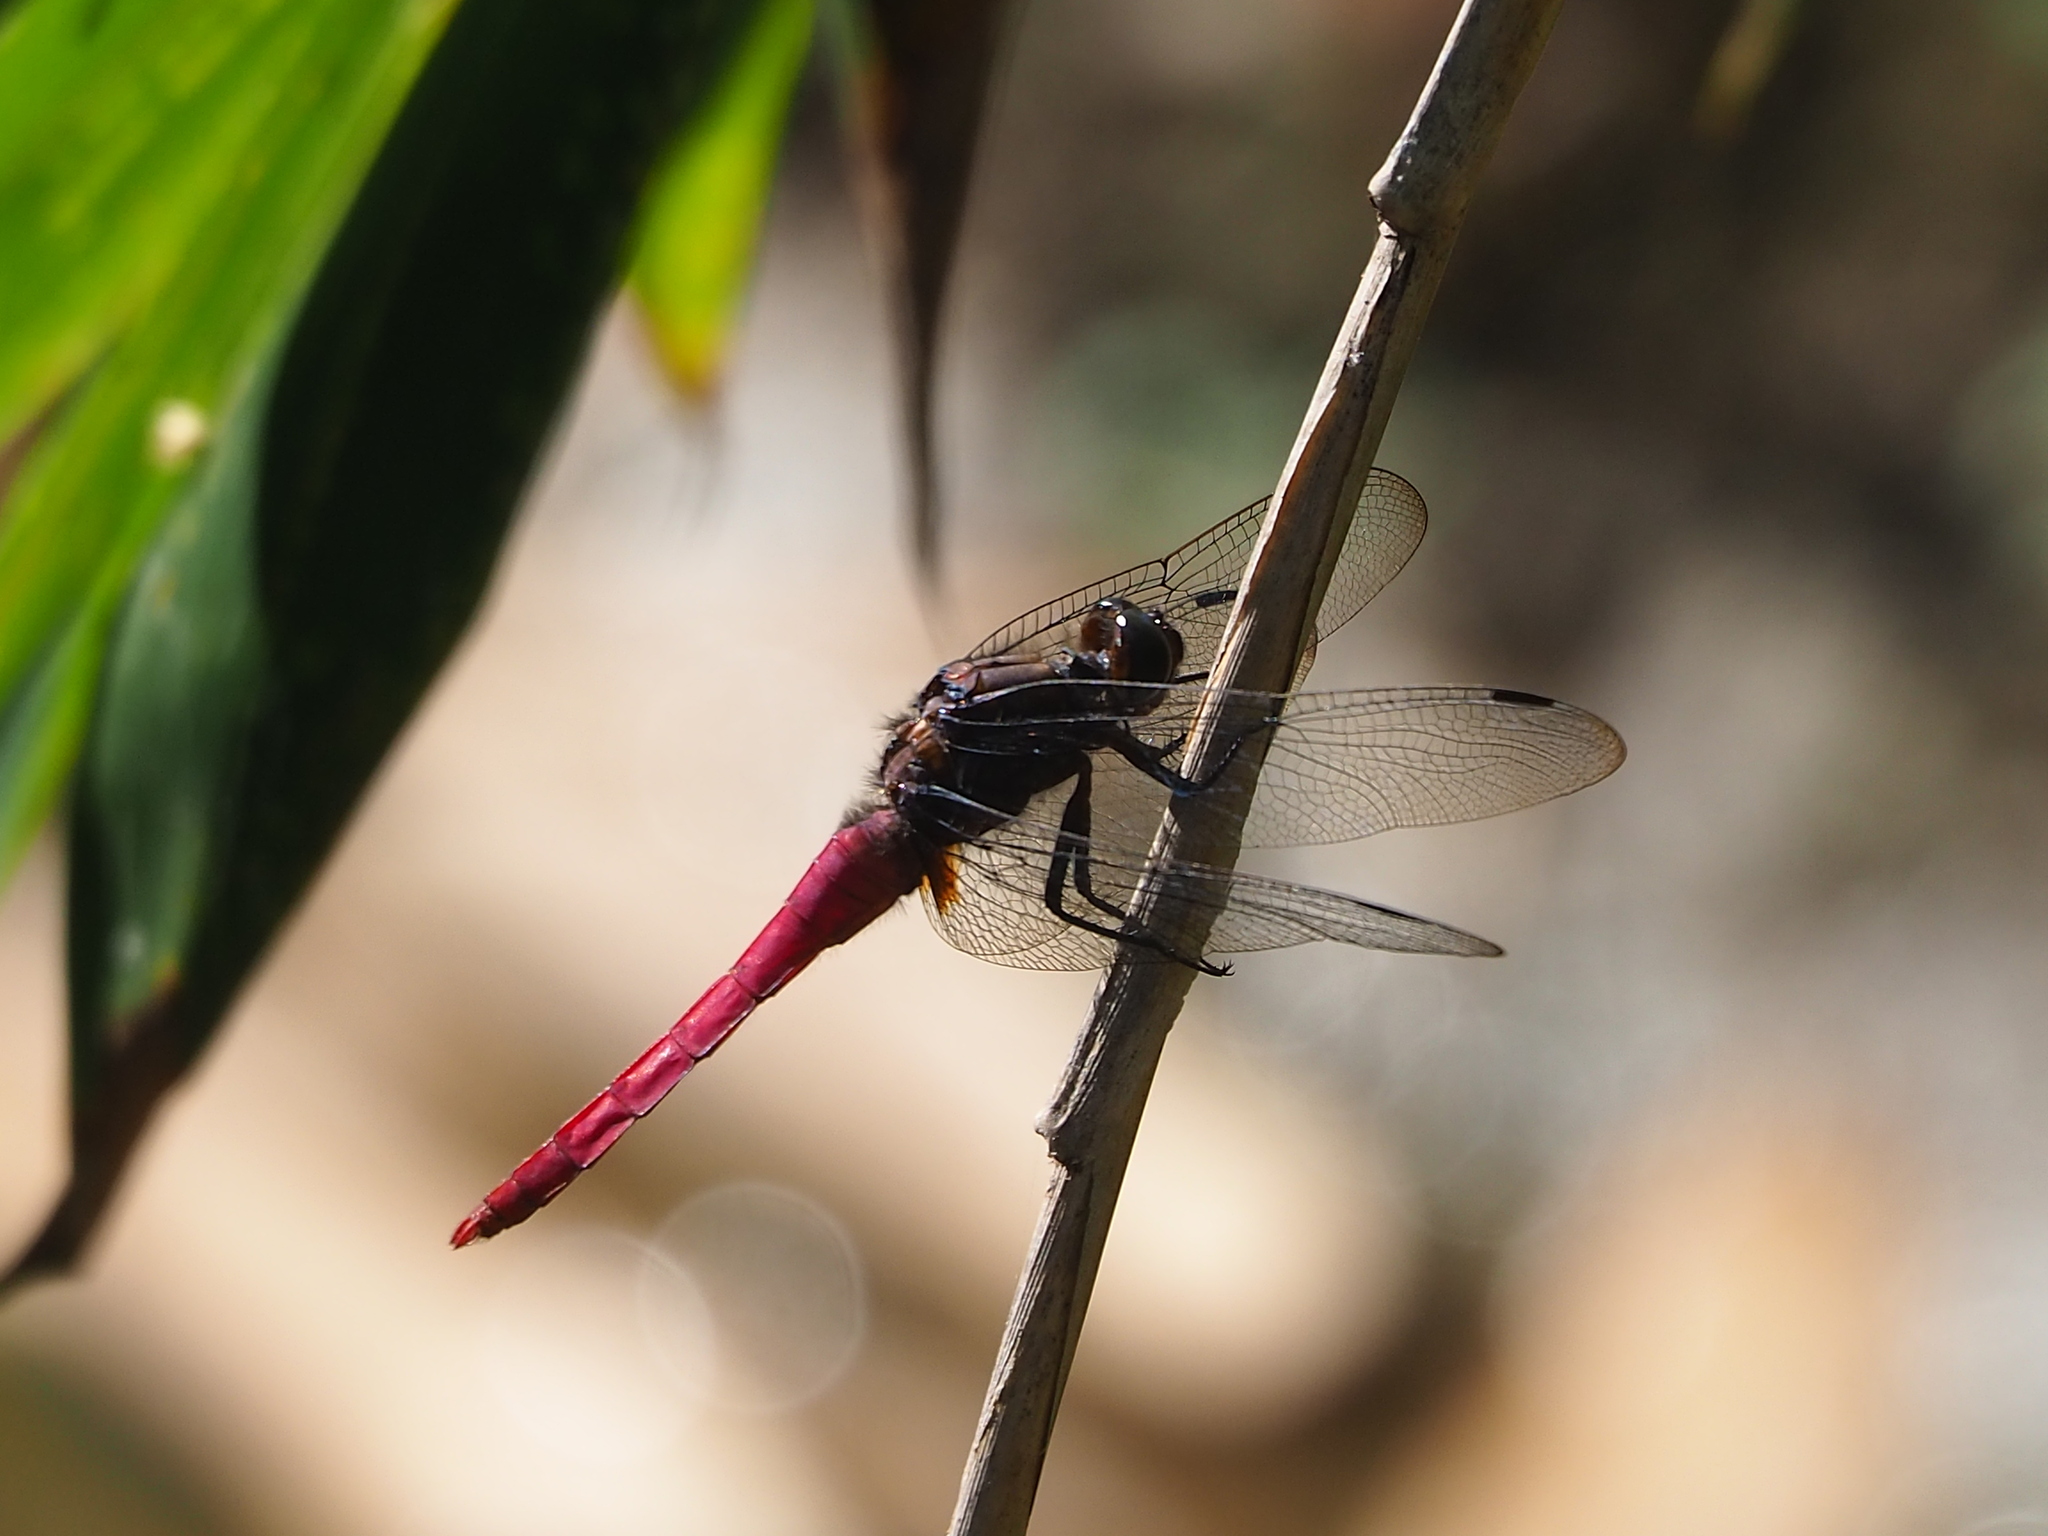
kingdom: Animalia
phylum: Arthropoda
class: Insecta
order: Odonata
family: Libellulidae
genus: Orthetrum
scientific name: Orthetrum pruinosum
